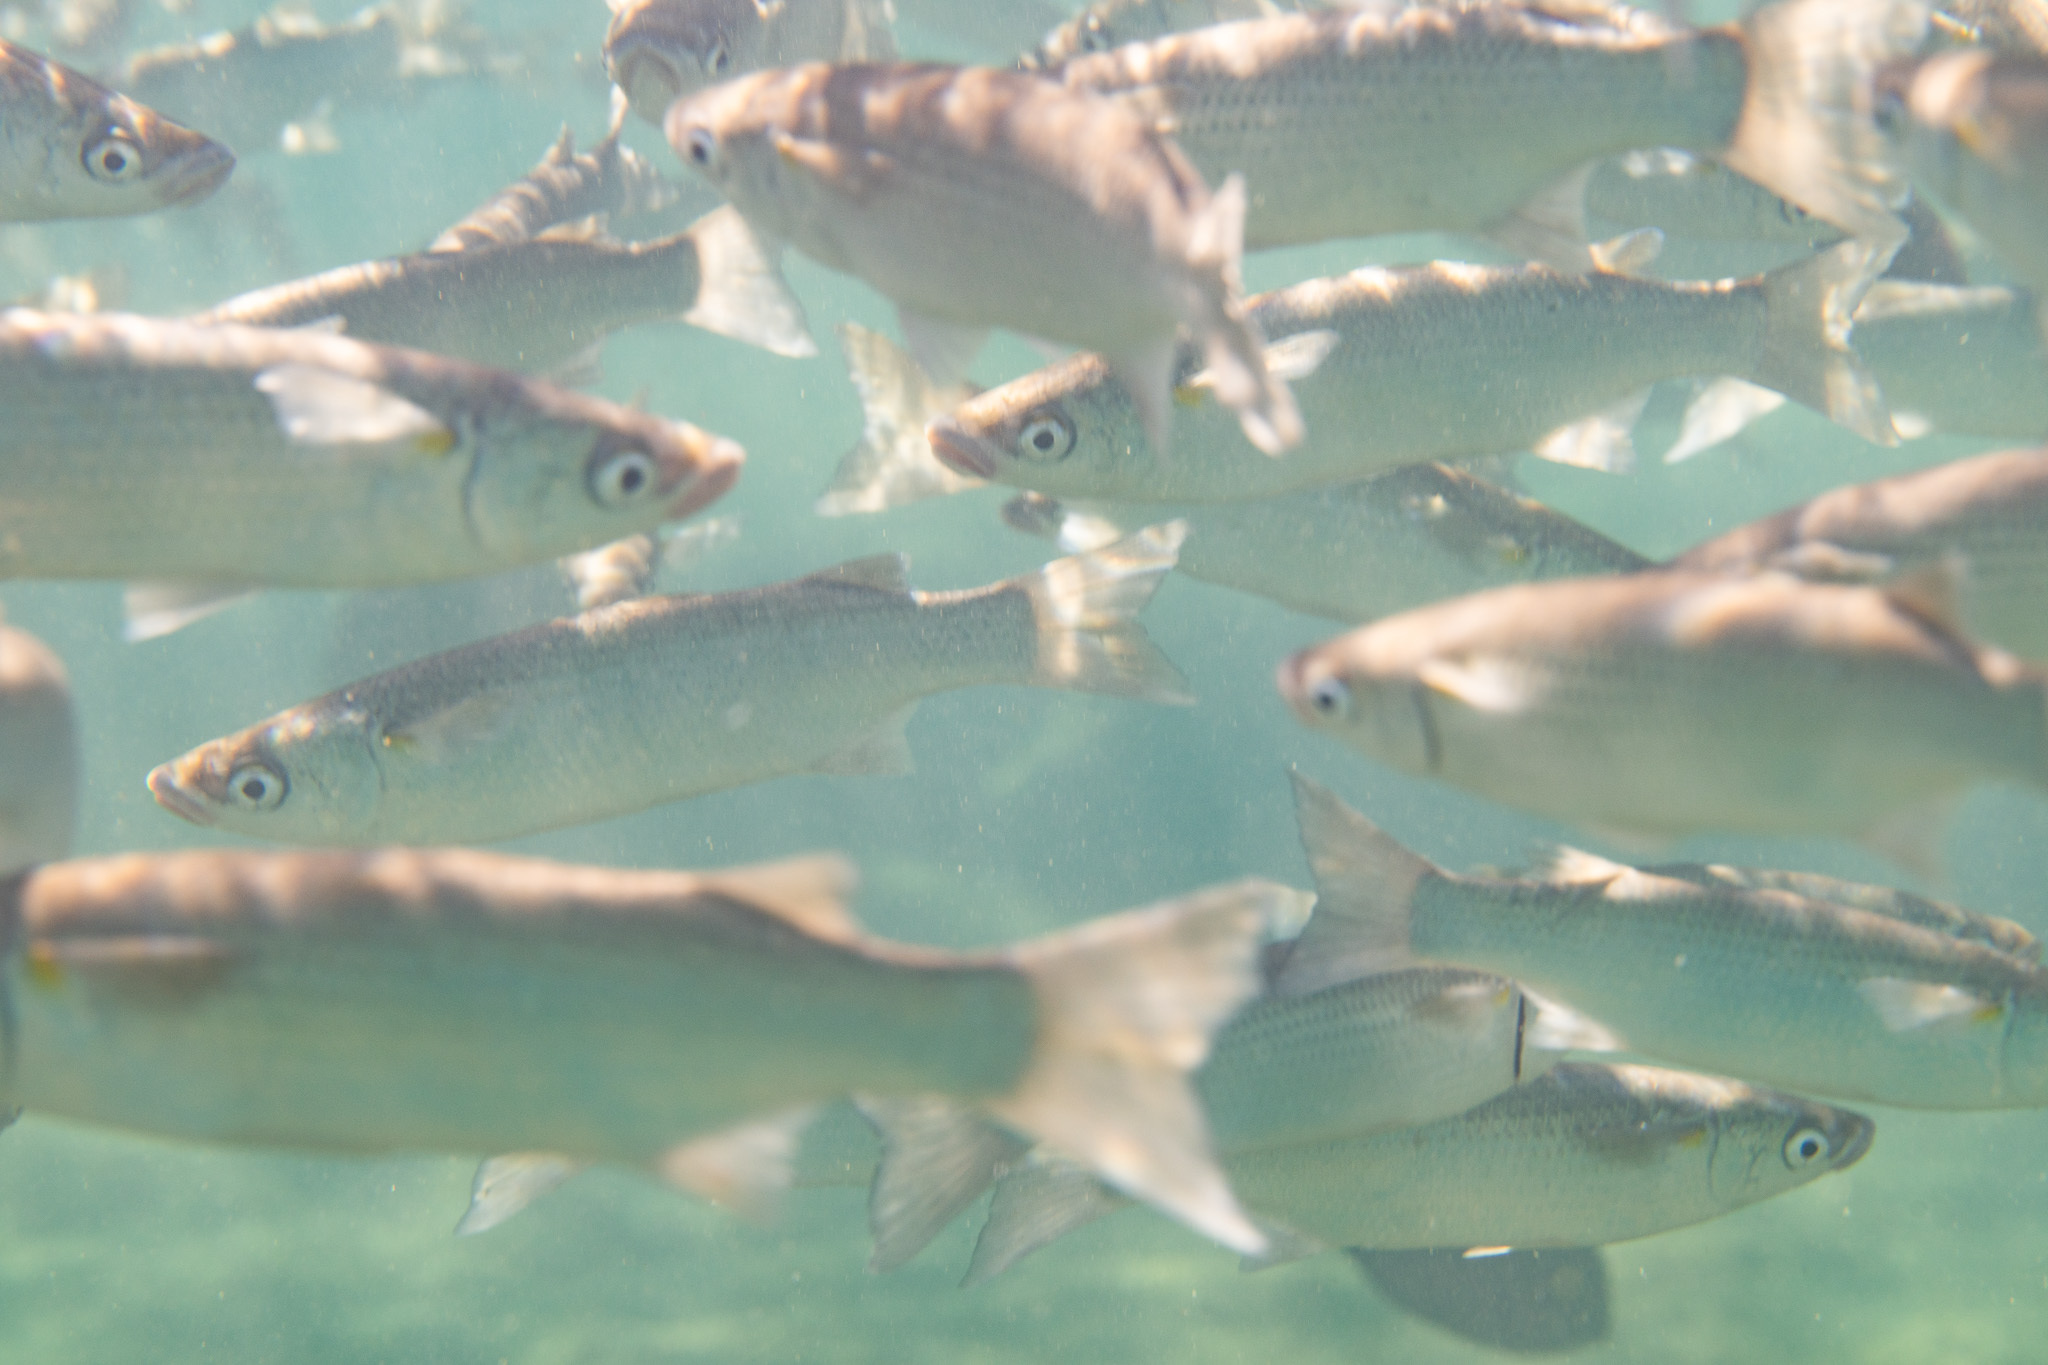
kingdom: Animalia
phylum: Chordata
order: Mugiliformes
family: Mugilidae
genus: Neomyxus
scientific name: Neomyxus leuciscus
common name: Acute-jawed mullet
